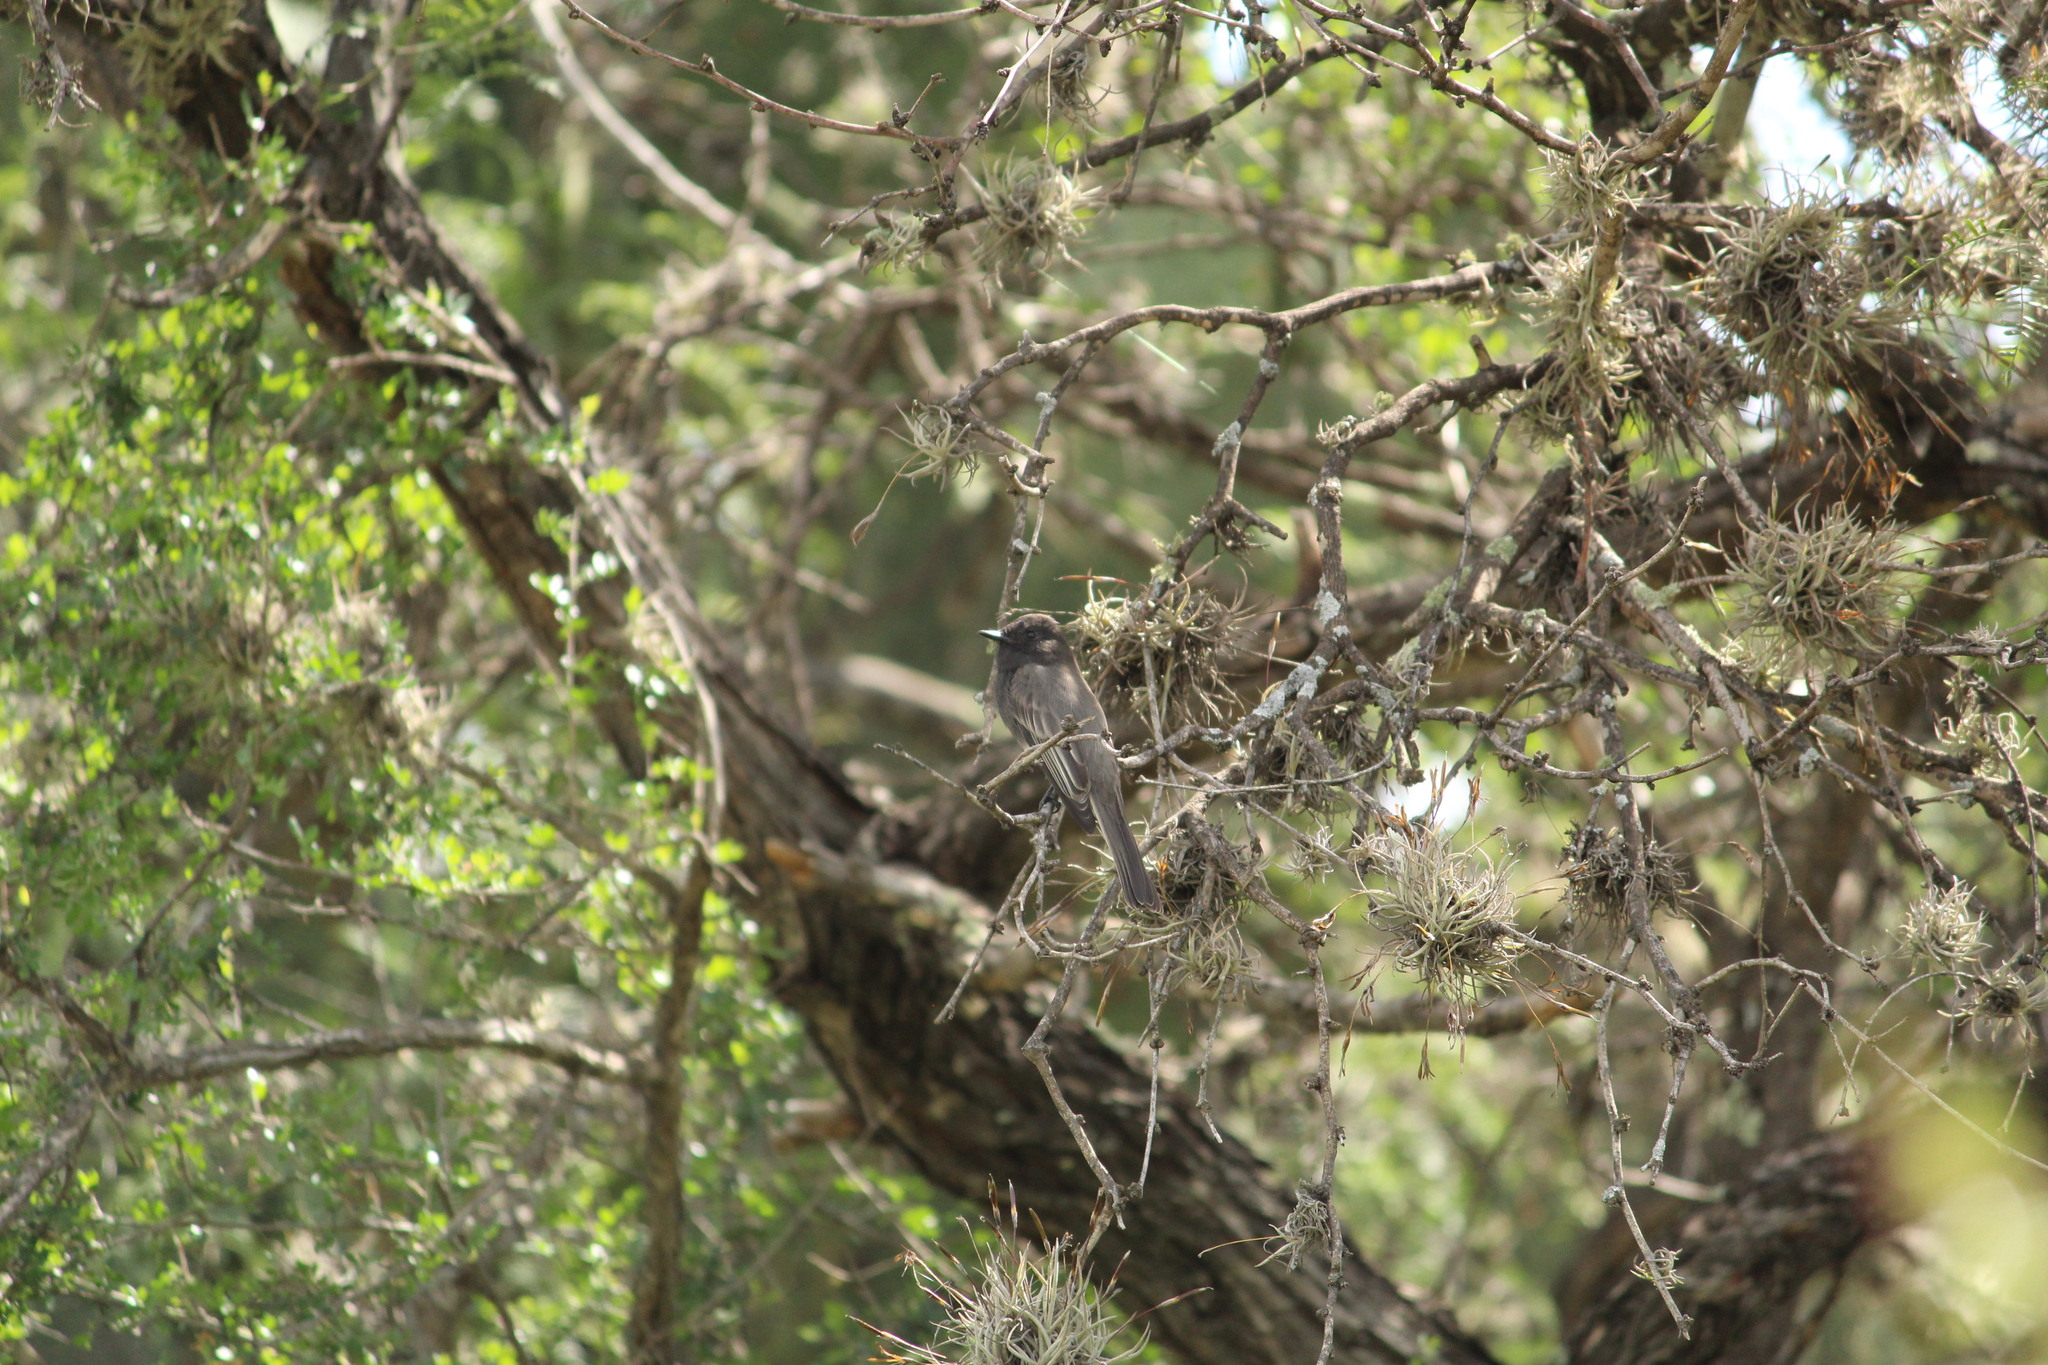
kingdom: Animalia
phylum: Chordata
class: Aves
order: Passeriformes
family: Tyrannidae
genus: Sayornis
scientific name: Sayornis nigricans
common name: Black phoebe
